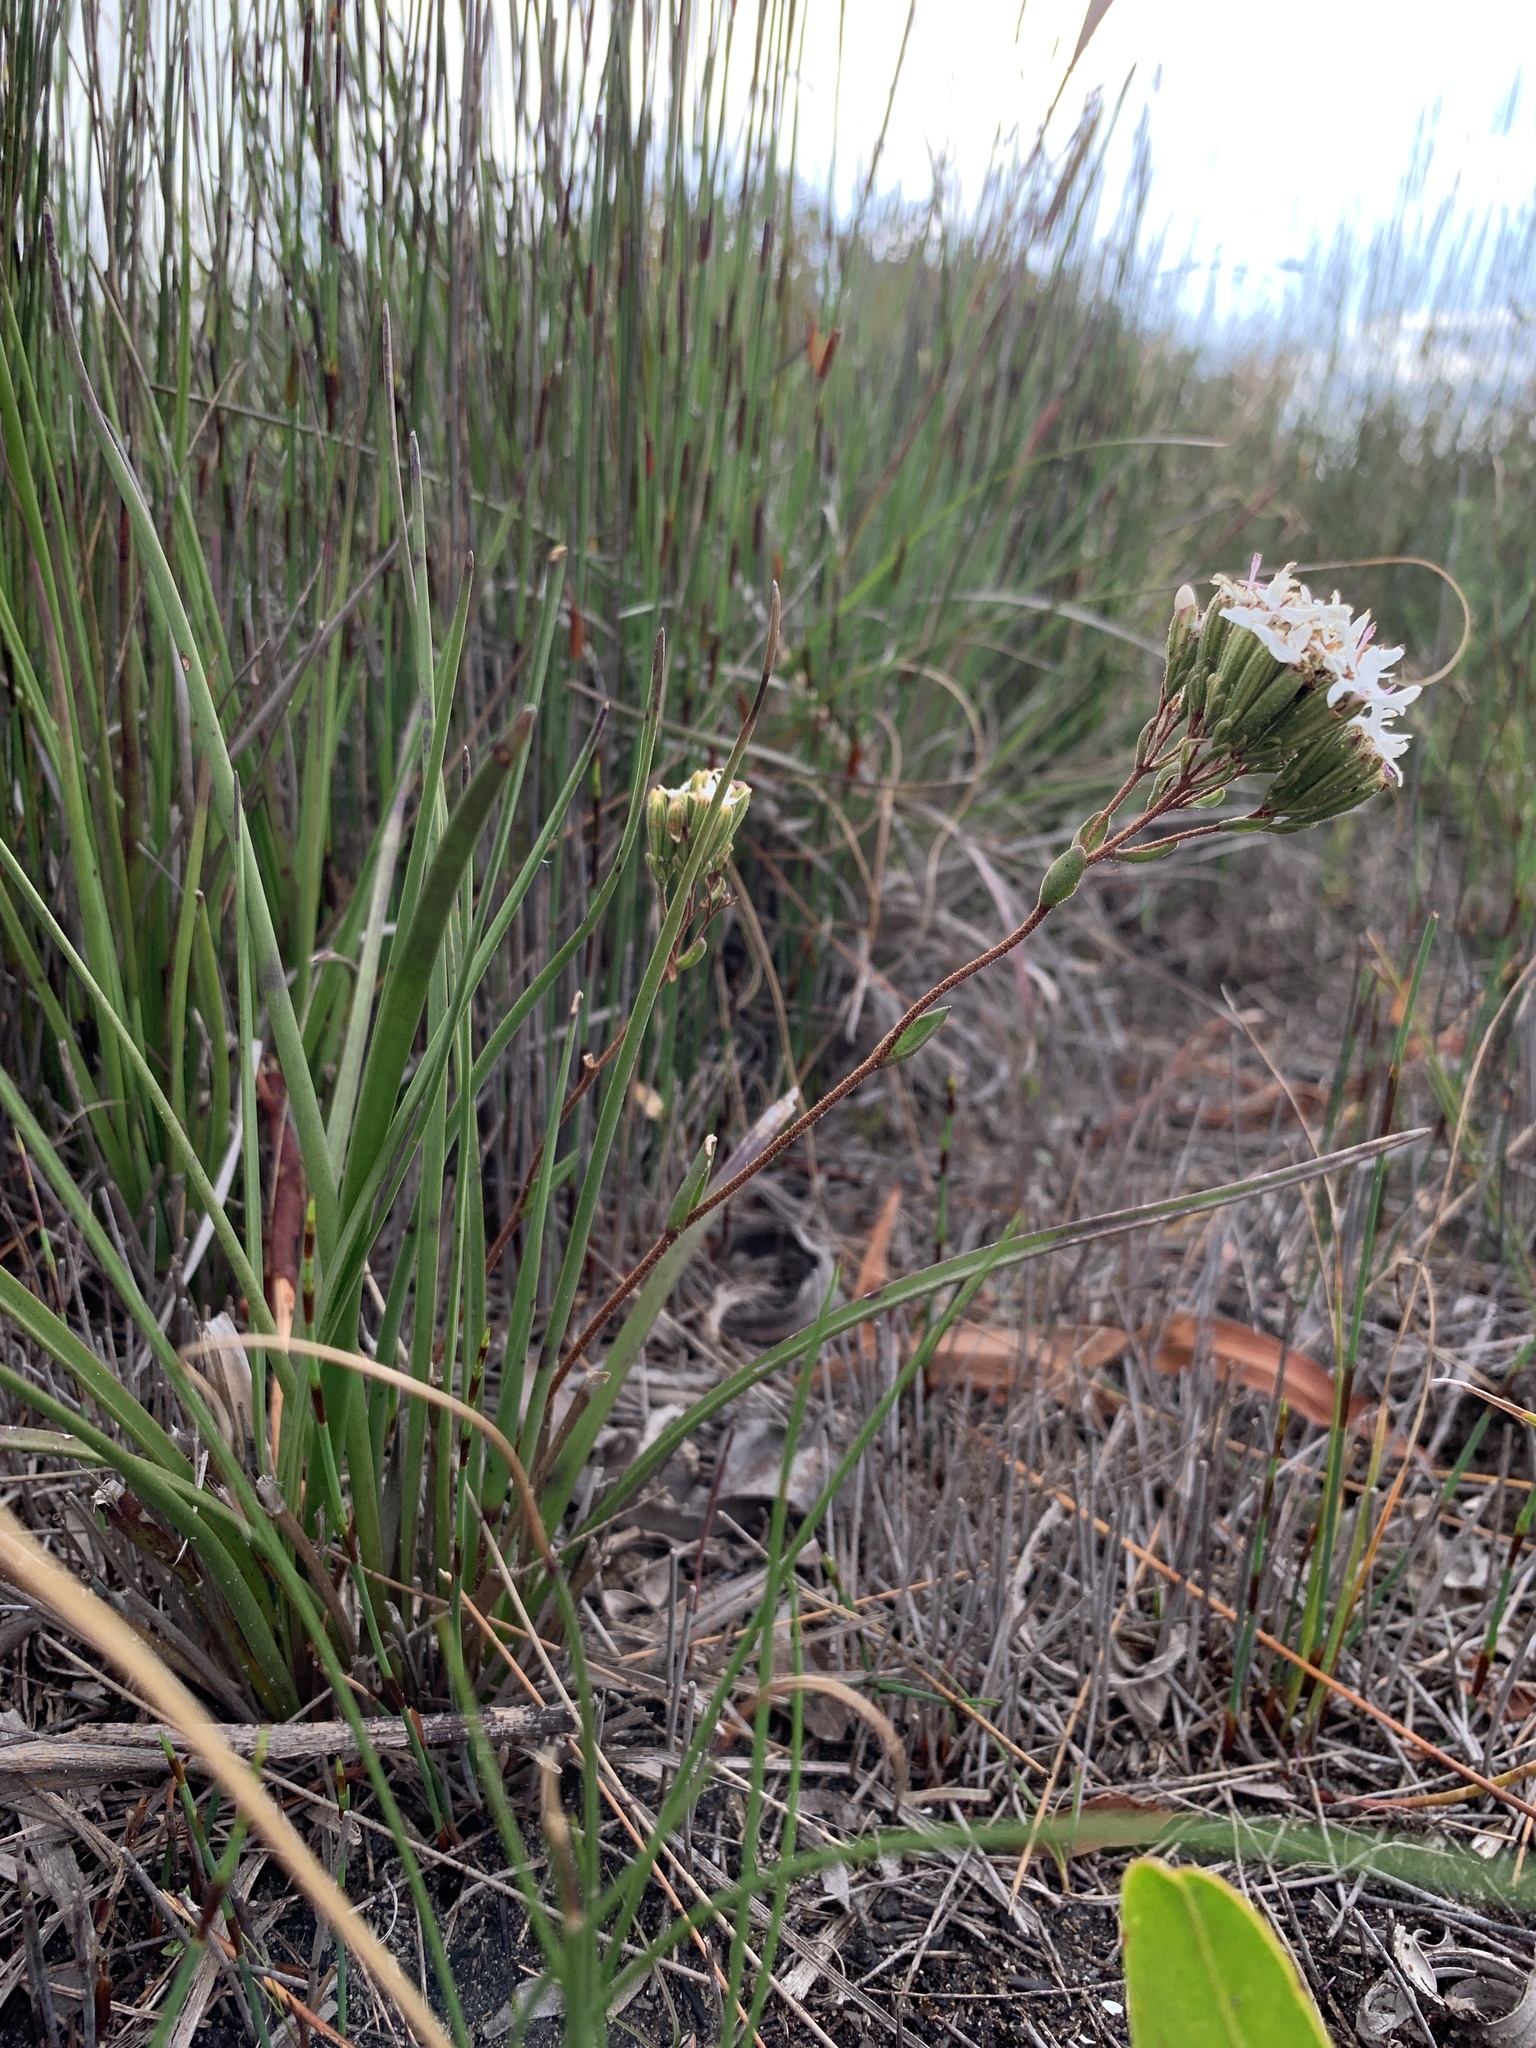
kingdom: Plantae
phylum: Tracheophyta
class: Magnoliopsida
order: Asterales
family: Asteraceae
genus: Corymbium
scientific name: Corymbium africanum
